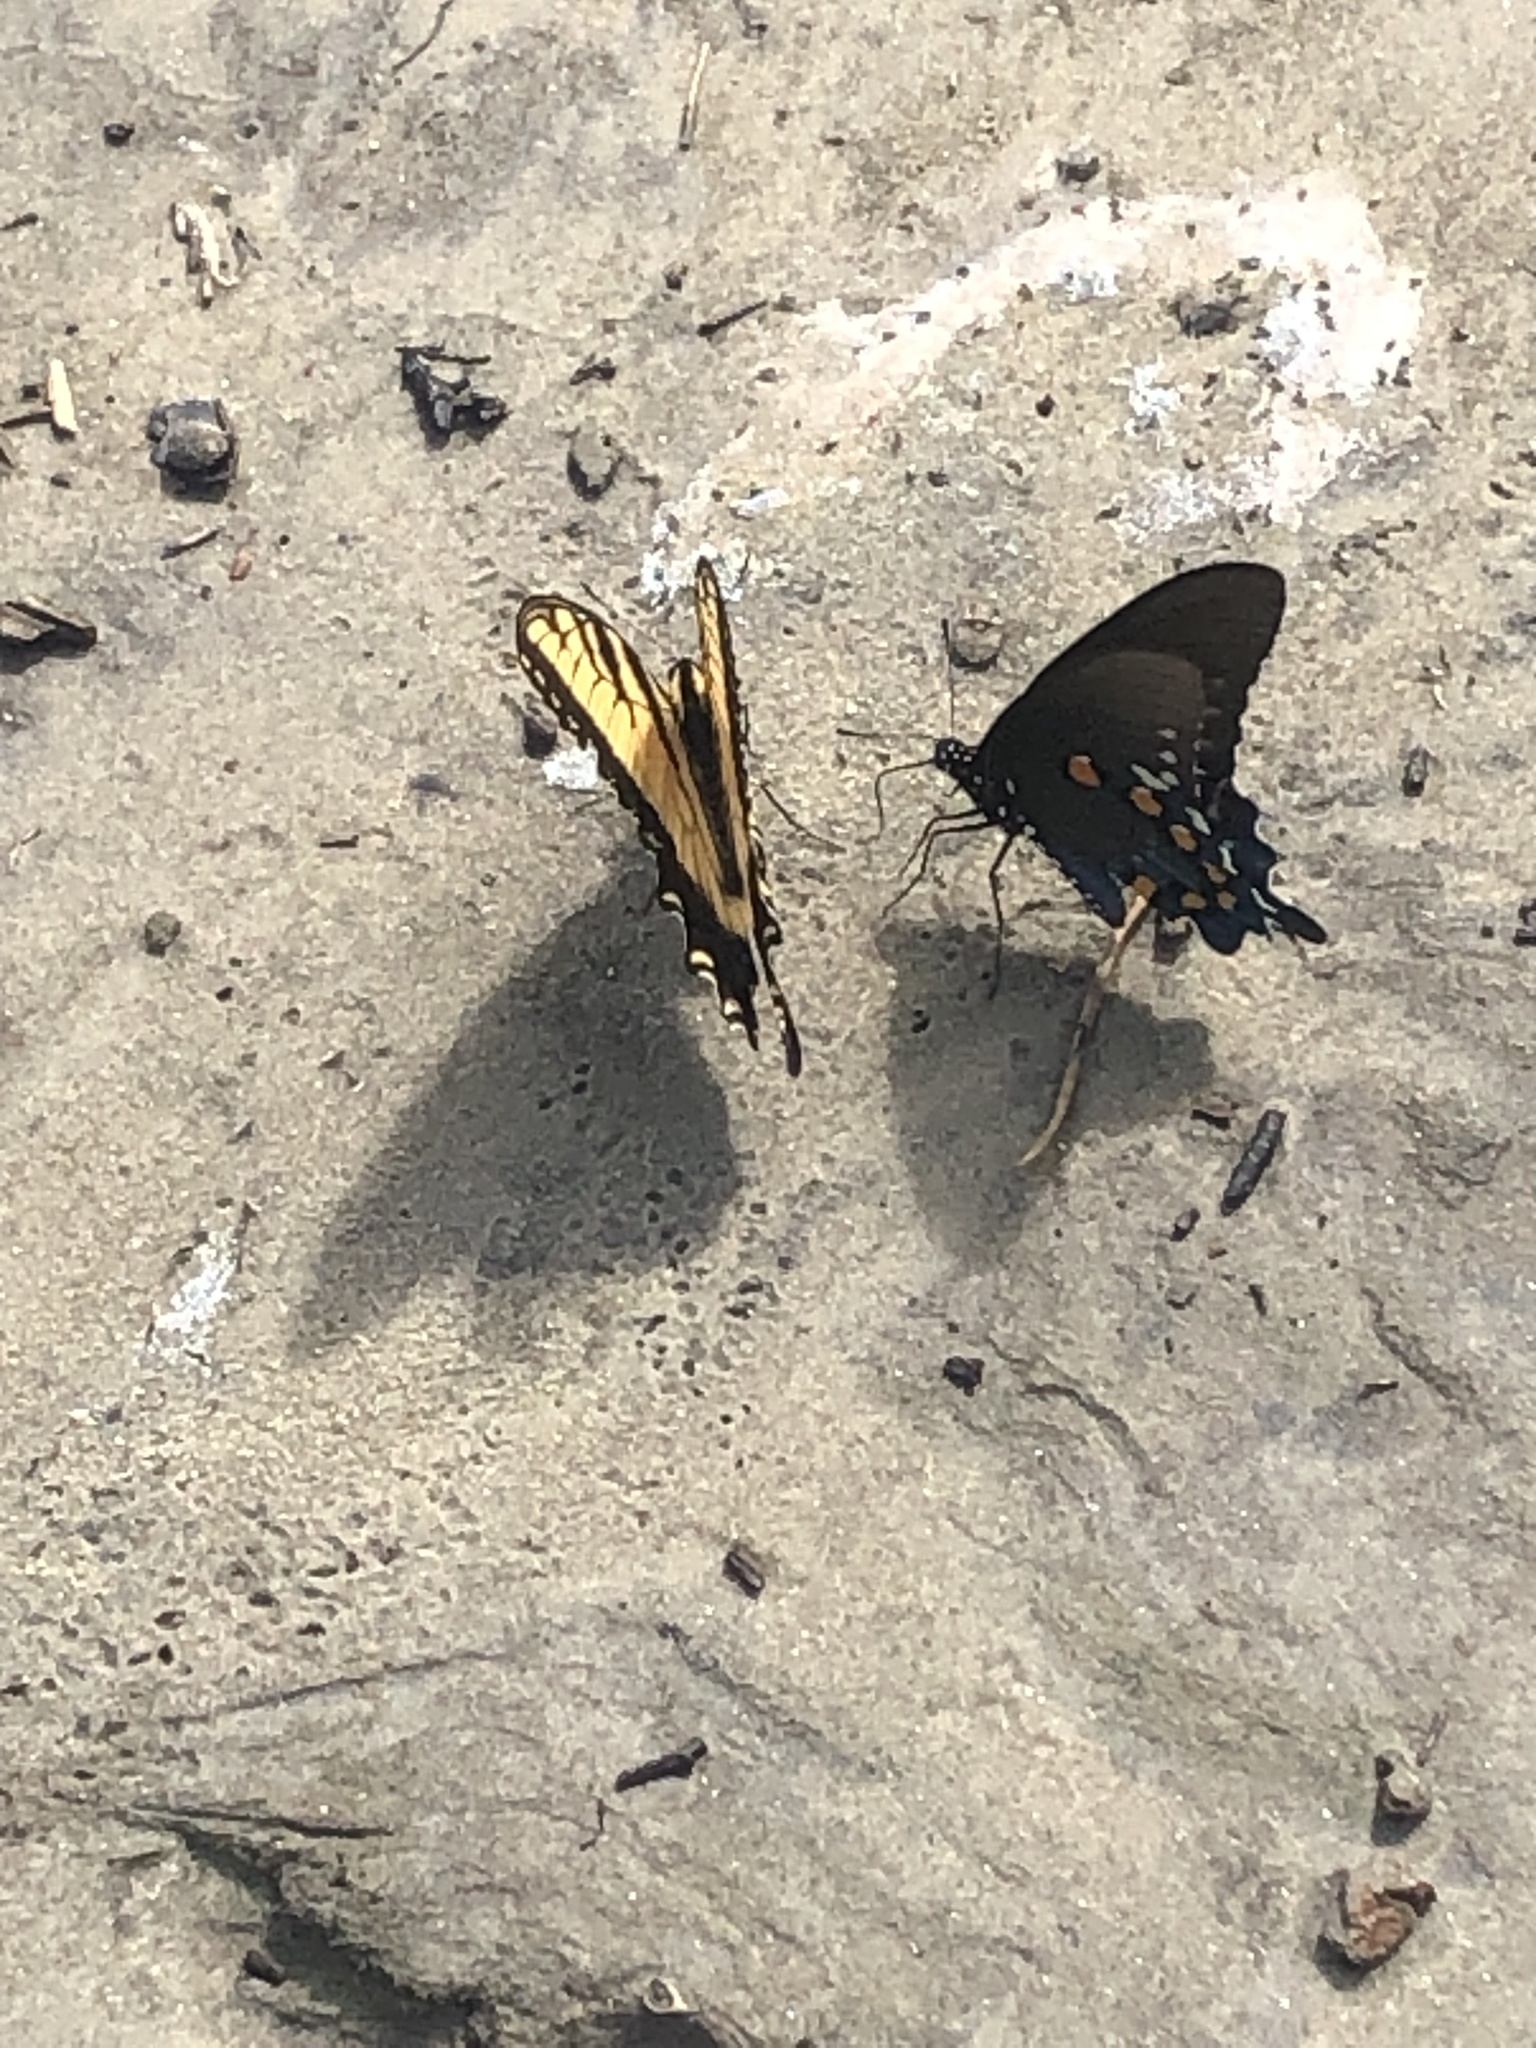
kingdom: Animalia
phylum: Arthropoda
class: Insecta
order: Lepidoptera
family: Papilionidae
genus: Battus
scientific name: Battus philenor
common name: Pipevine swallowtail
